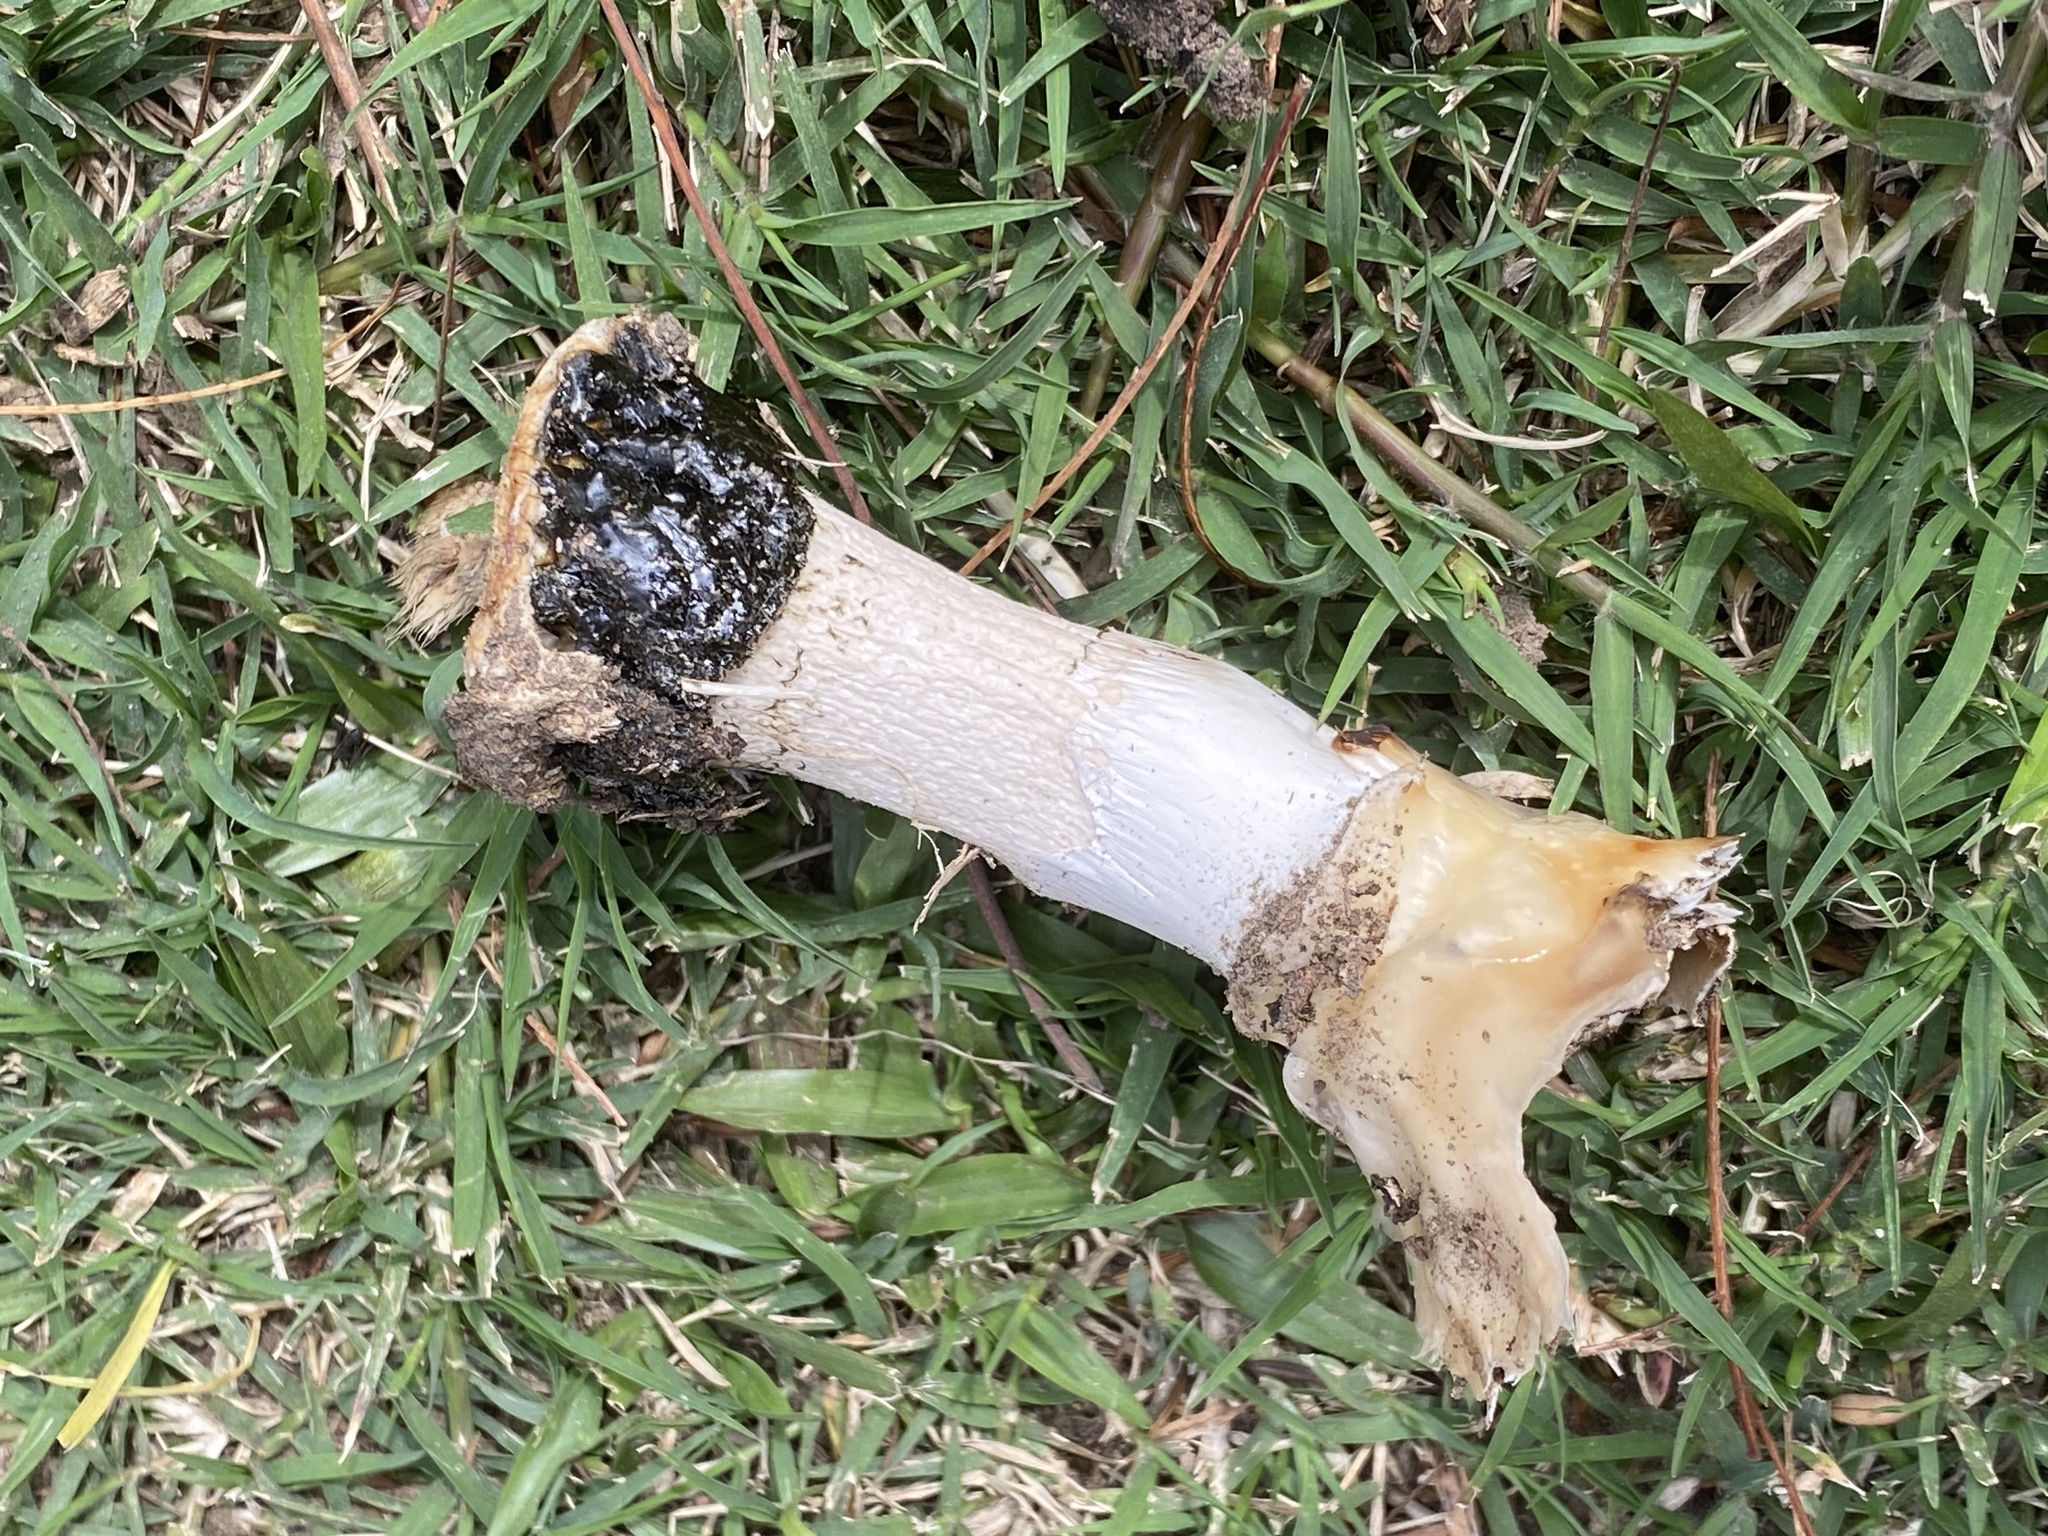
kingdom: Fungi
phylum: Basidiomycota
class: Agaricomycetes
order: Phallales
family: Phallaceae
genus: Itajahya
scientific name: Itajahya galericulata
